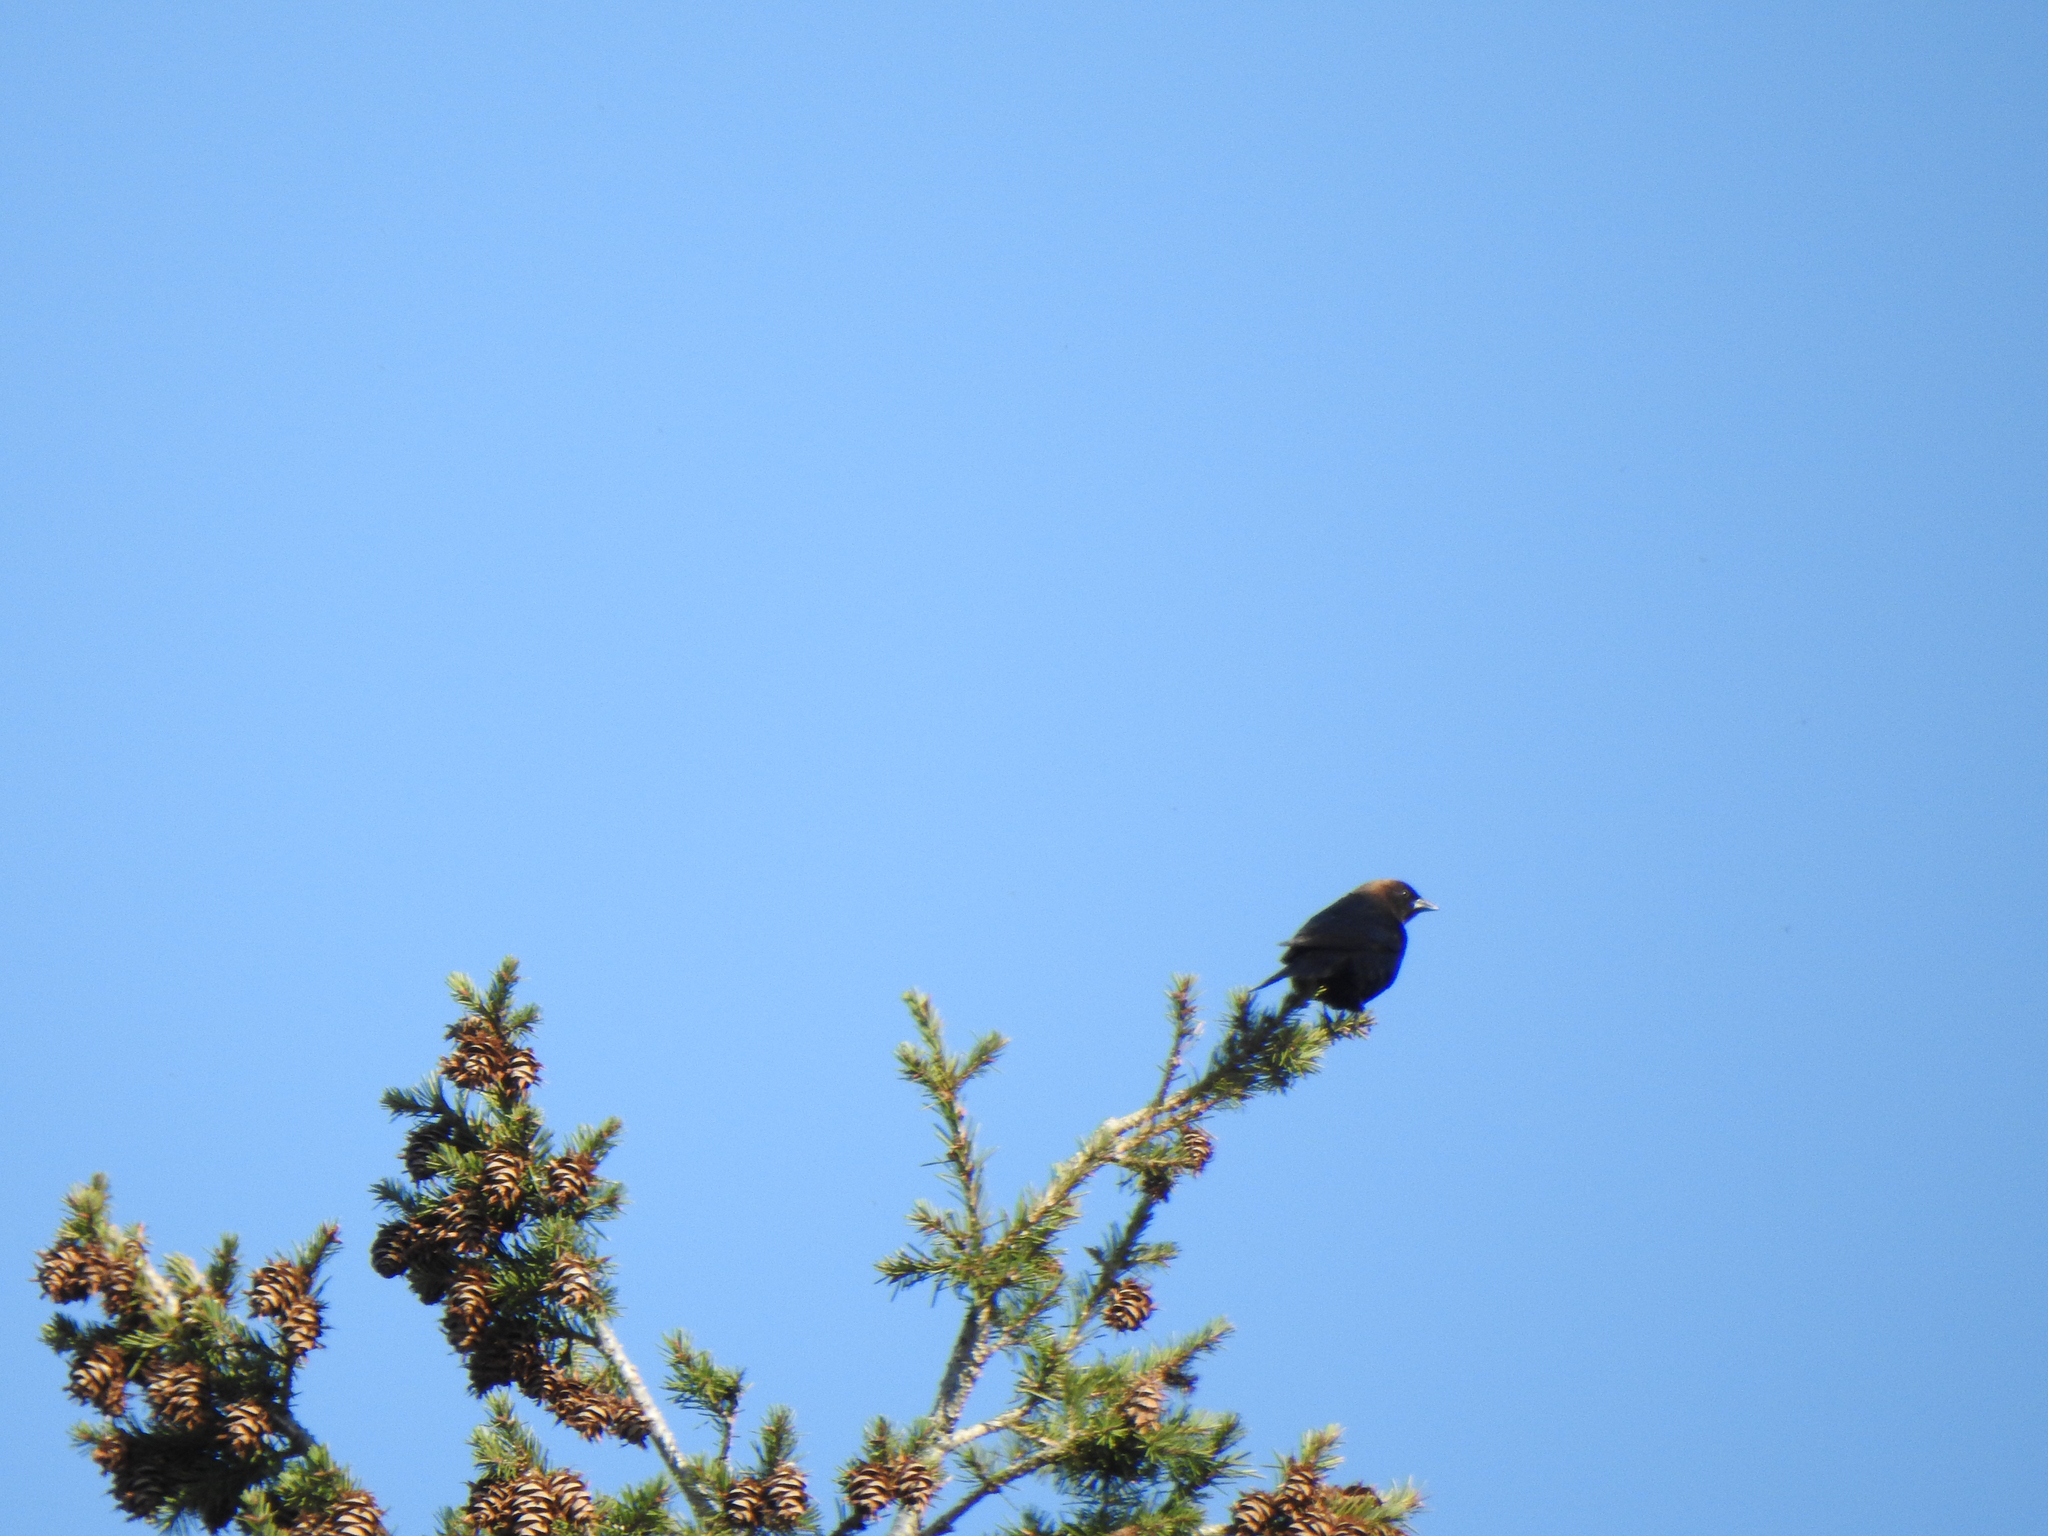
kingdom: Animalia
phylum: Chordata
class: Aves
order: Passeriformes
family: Icteridae
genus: Molothrus
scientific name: Molothrus ater
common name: Brown-headed cowbird
